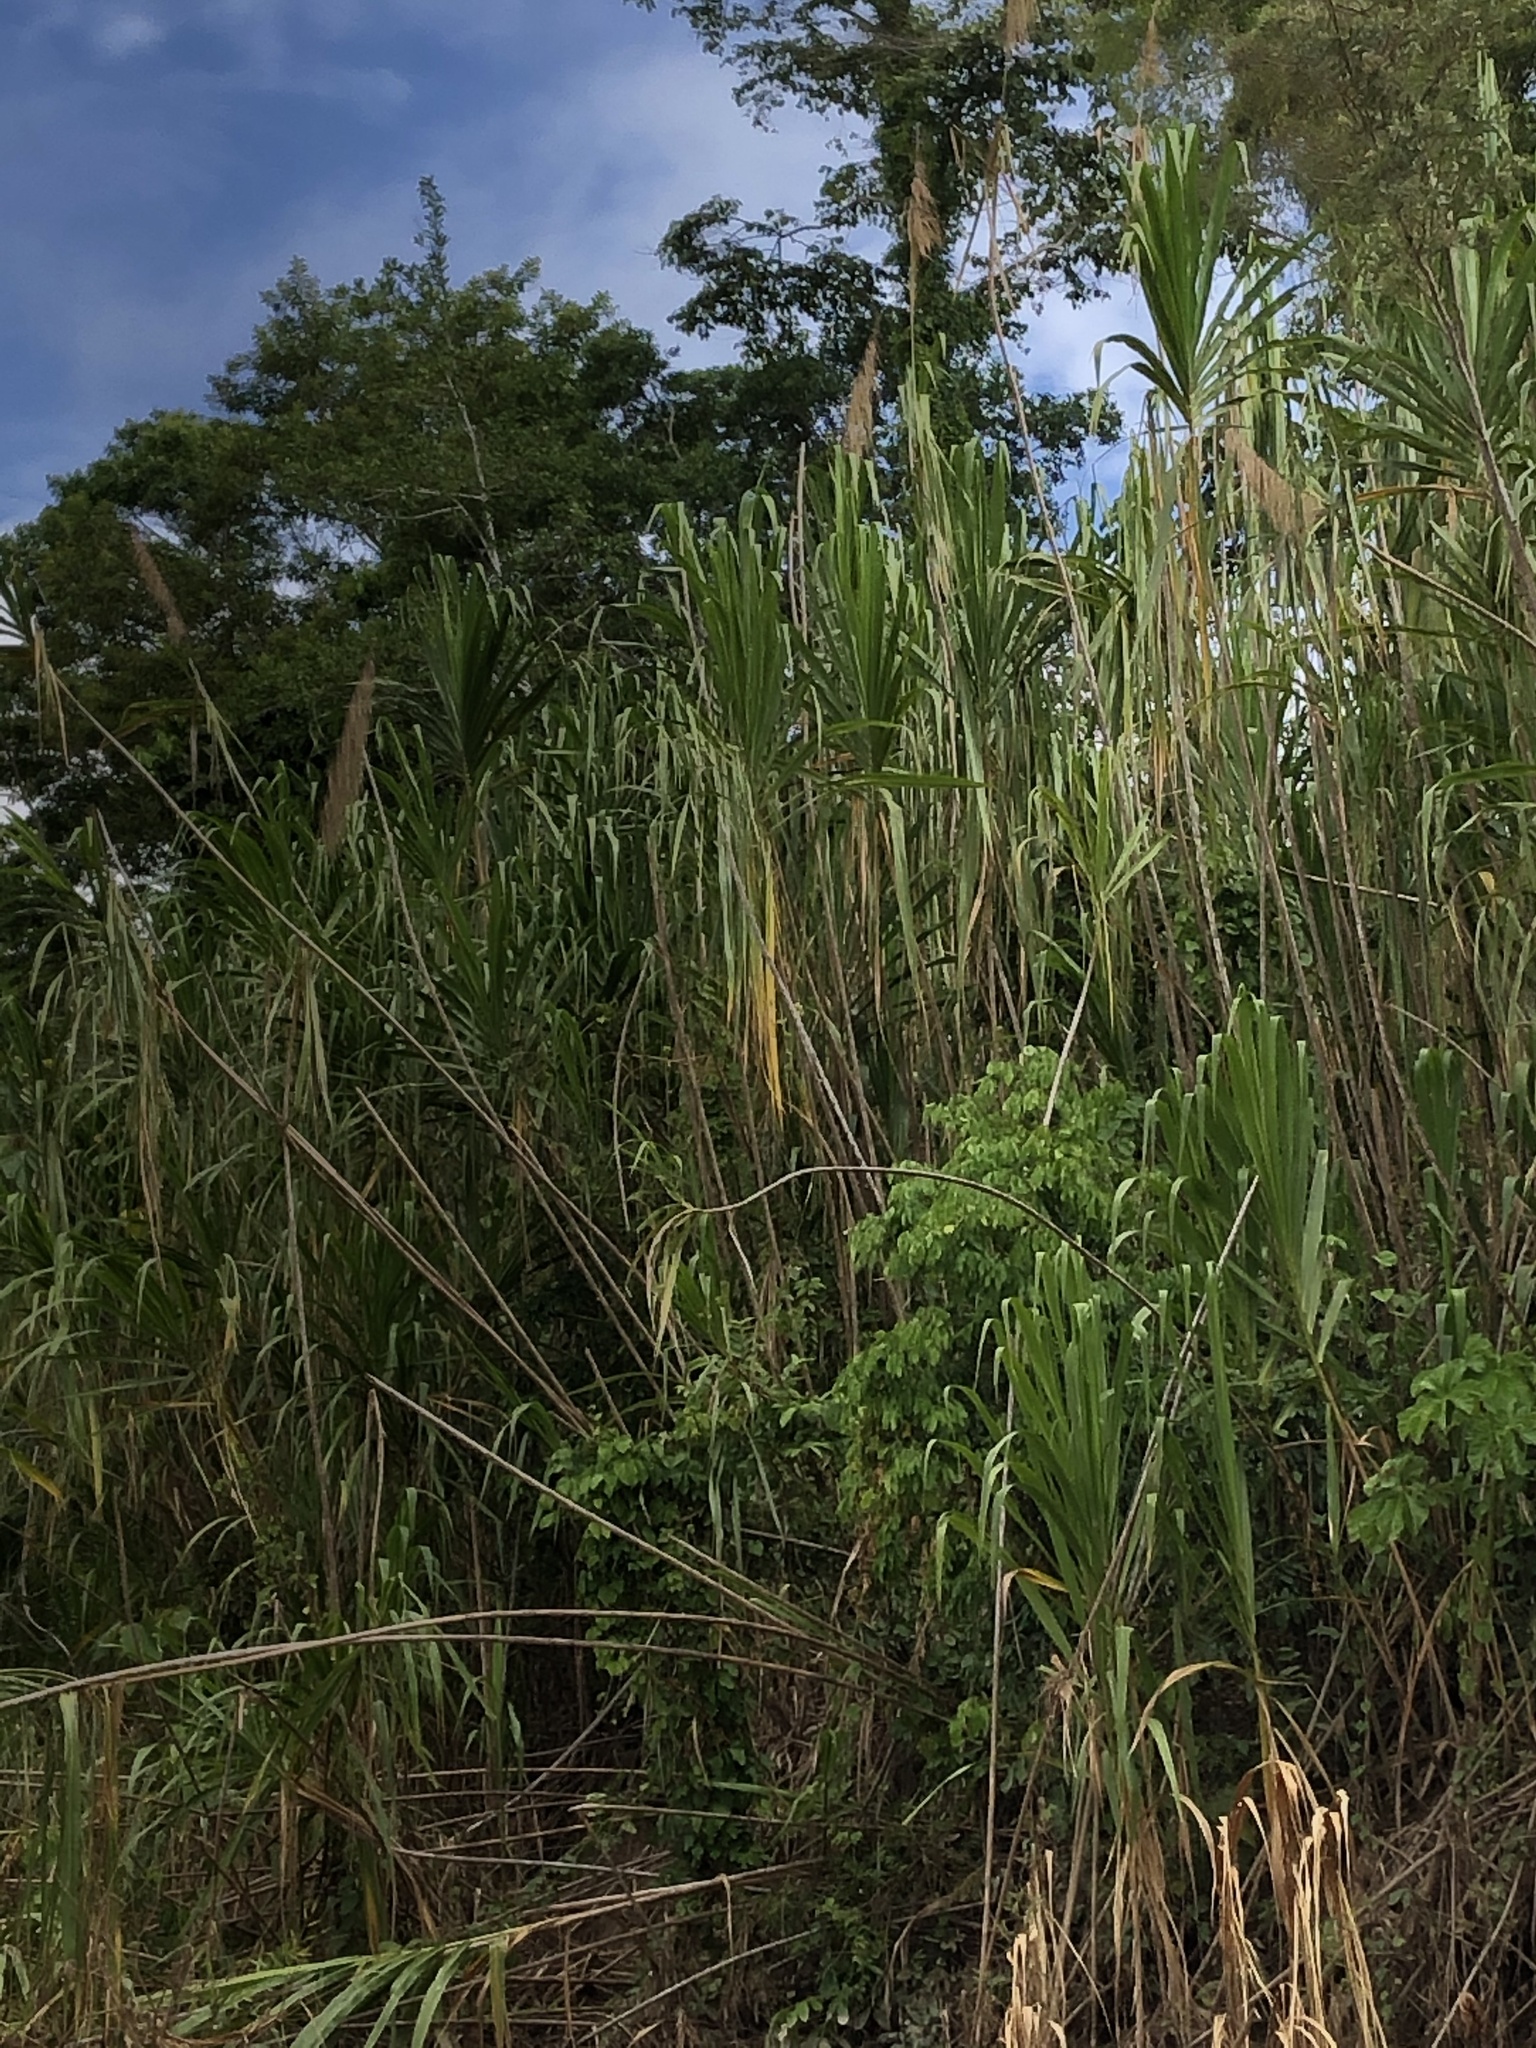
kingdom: Plantae
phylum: Tracheophyta
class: Liliopsida
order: Poales
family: Poaceae
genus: Gynerium
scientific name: Gynerium sagittatum
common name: Wild cane
